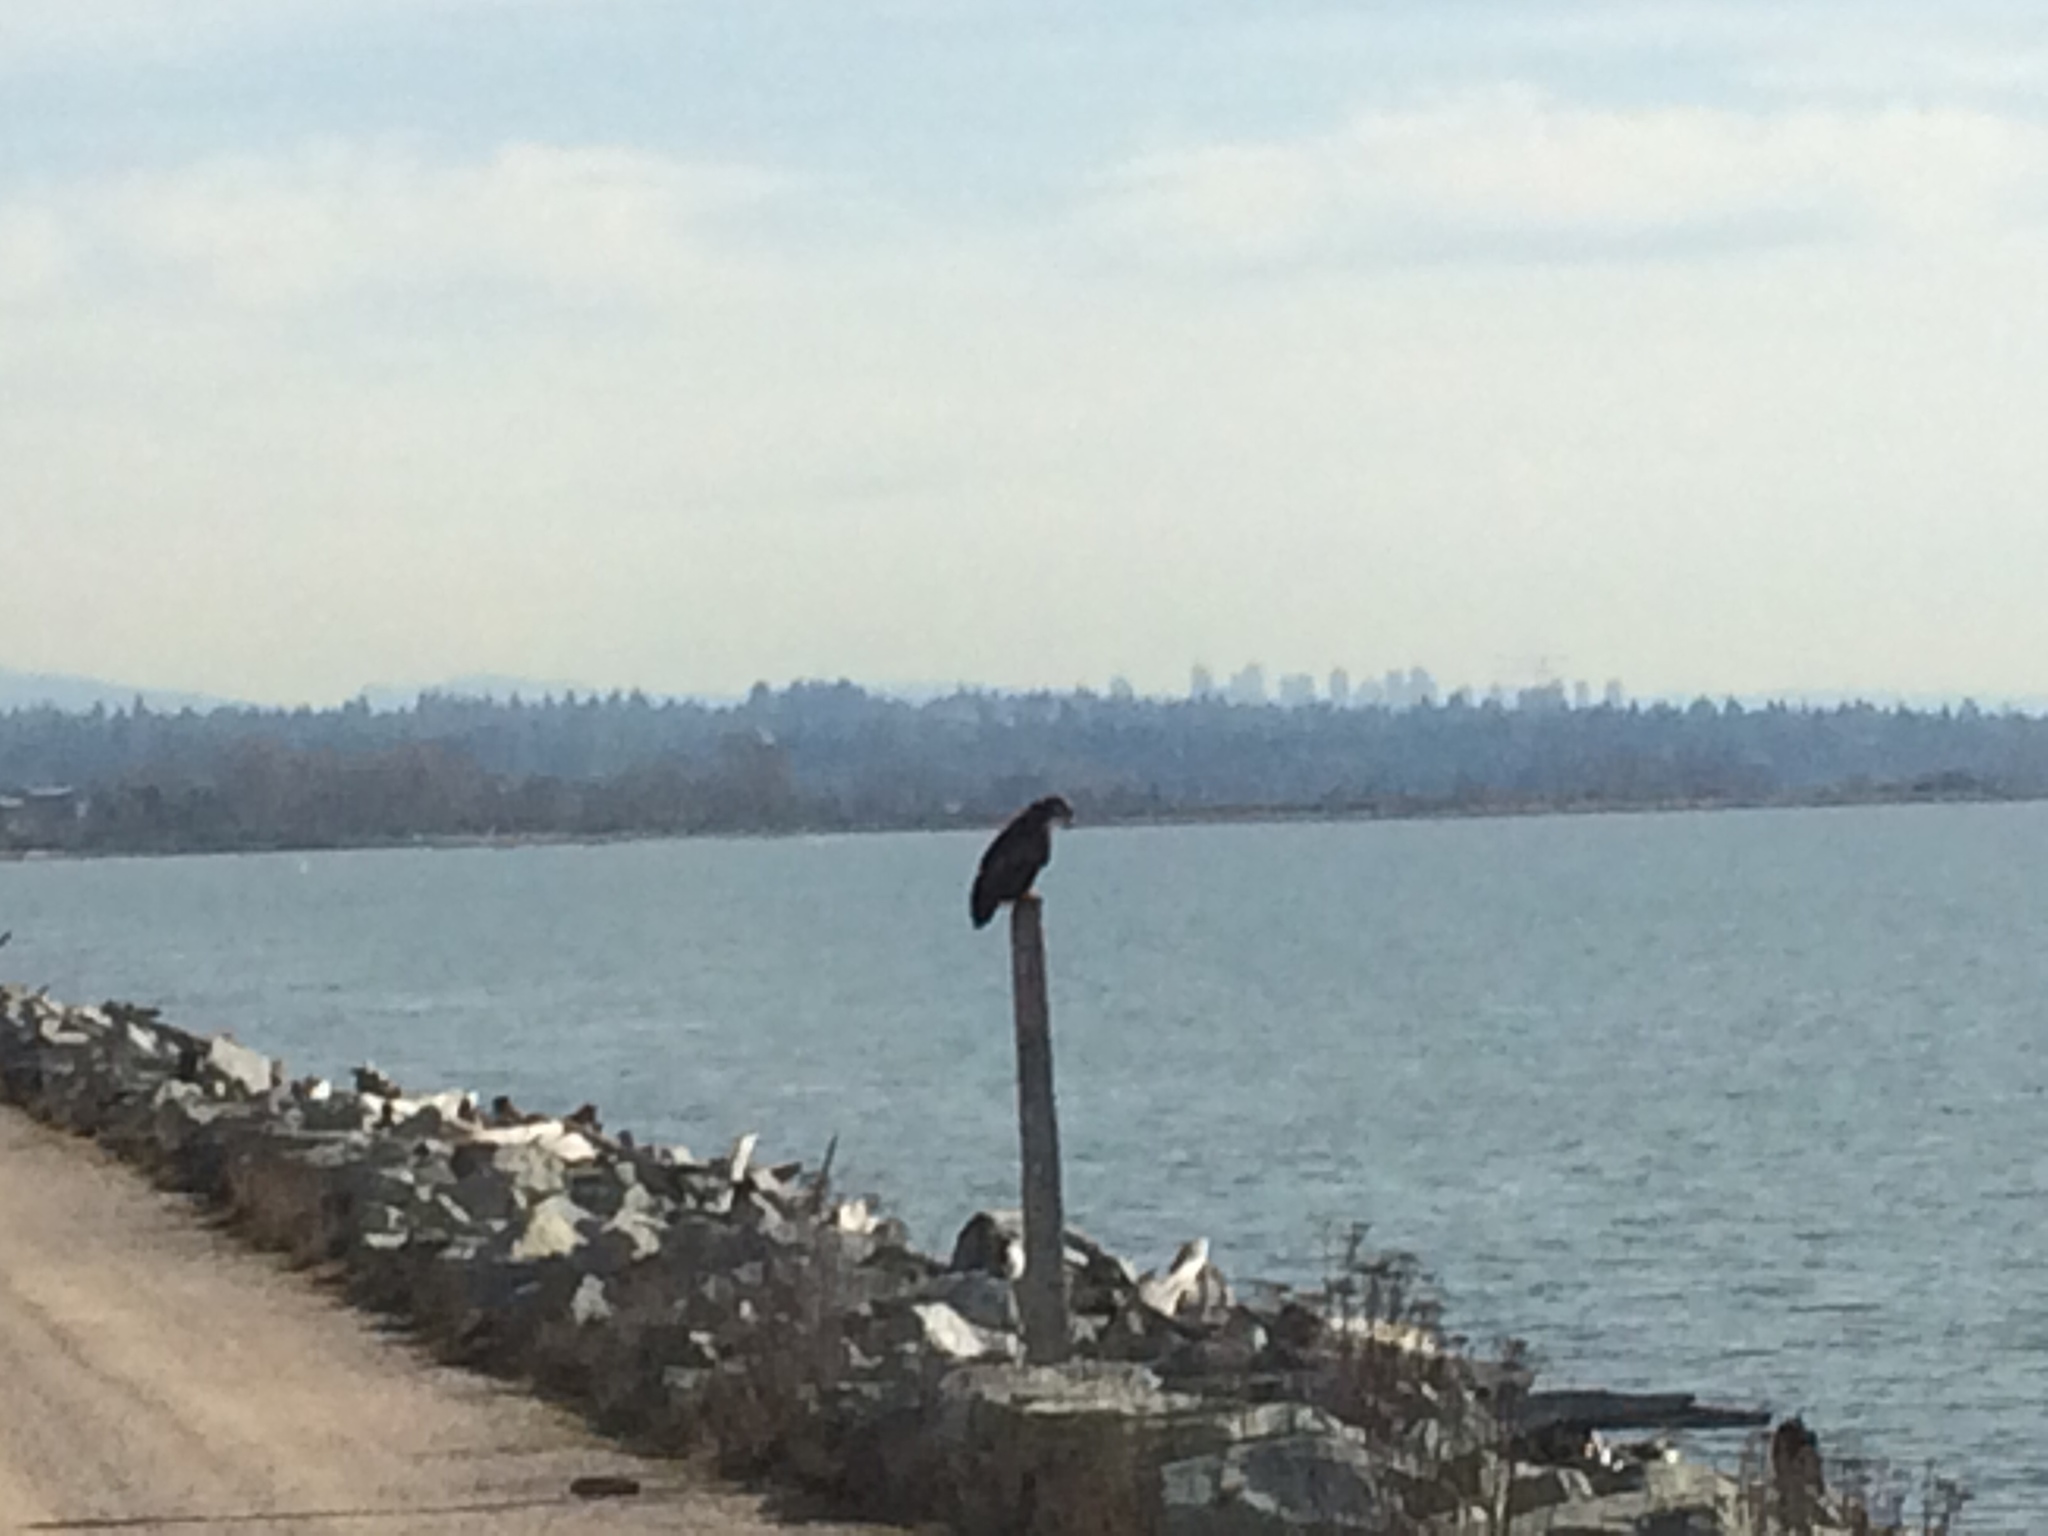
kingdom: Animalia
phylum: Chordata
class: Aves
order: Accipitriformes
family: Accipitridae
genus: Haliaeetus
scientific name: Haliaeetus leucocephalus
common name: Bald eagle
